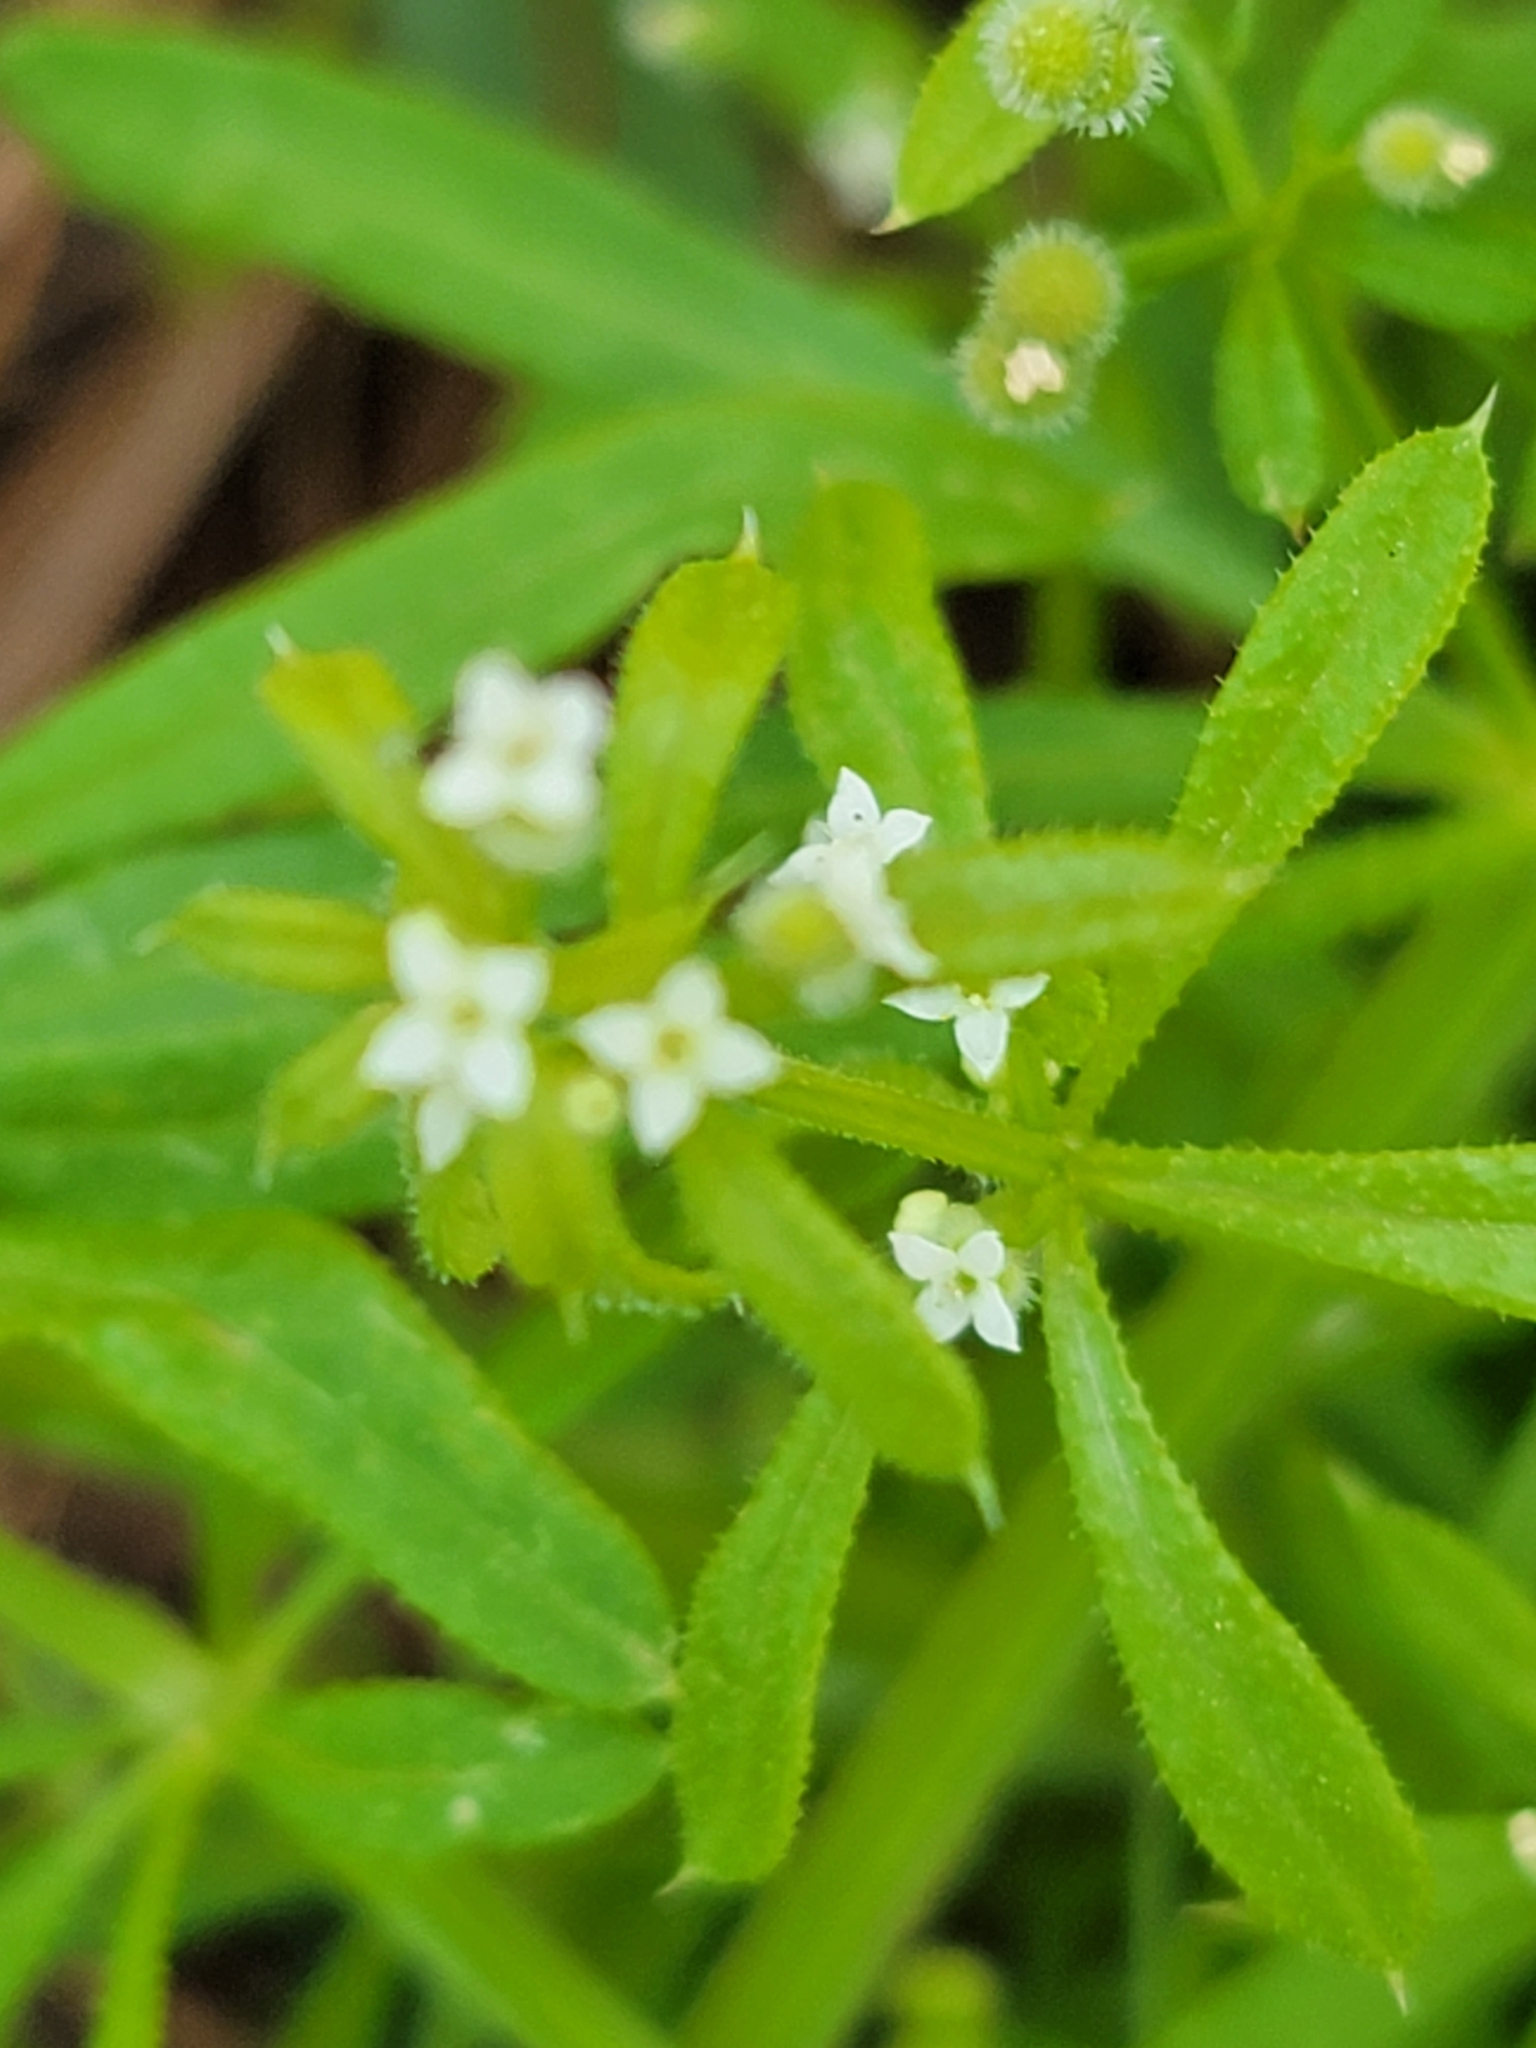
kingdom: Plantae
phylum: Tracheophyta
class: Magnoliopsida
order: Gentianales
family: Rubiaceae
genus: Galium
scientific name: Galium aparine
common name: Cleavers
